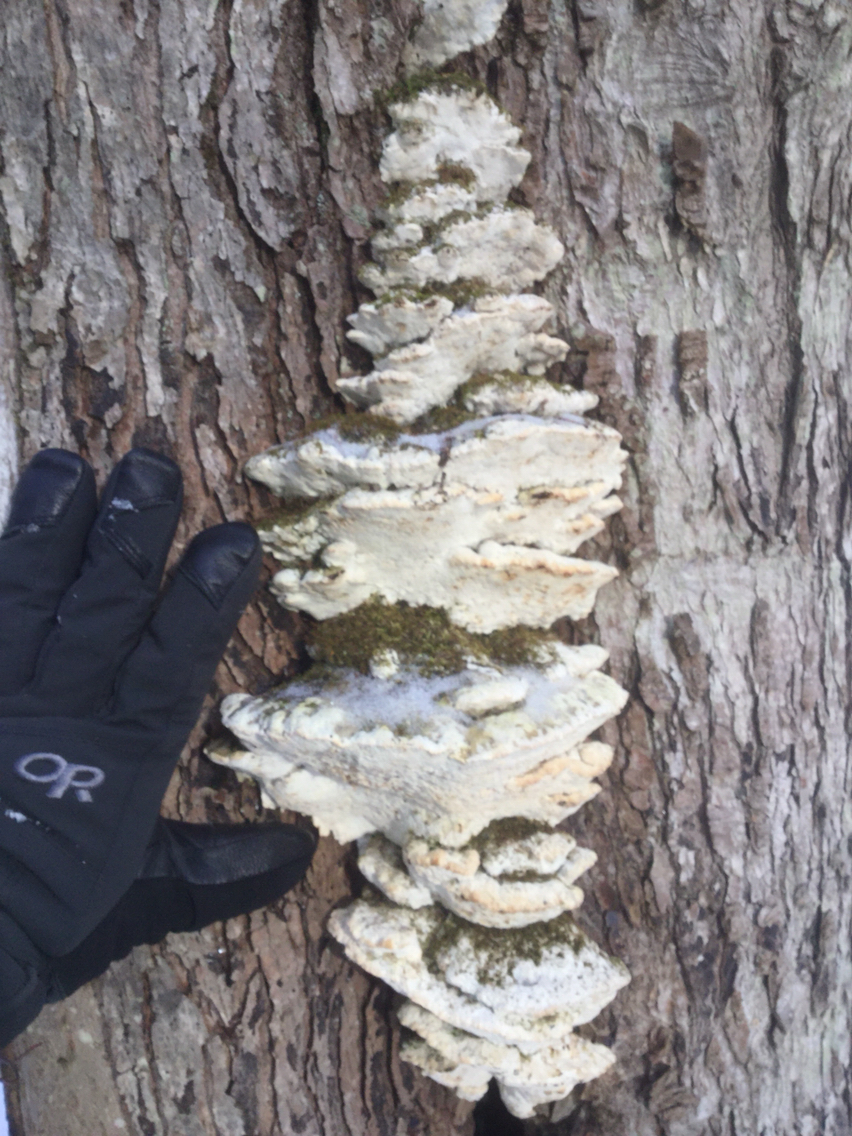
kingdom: Fungi
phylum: Basidiomycota
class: Agaricomycetes
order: Hymenochaetales
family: Oxyporaceae
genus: Oxyporus
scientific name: Oxyporus populinus
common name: Poplar bracket
